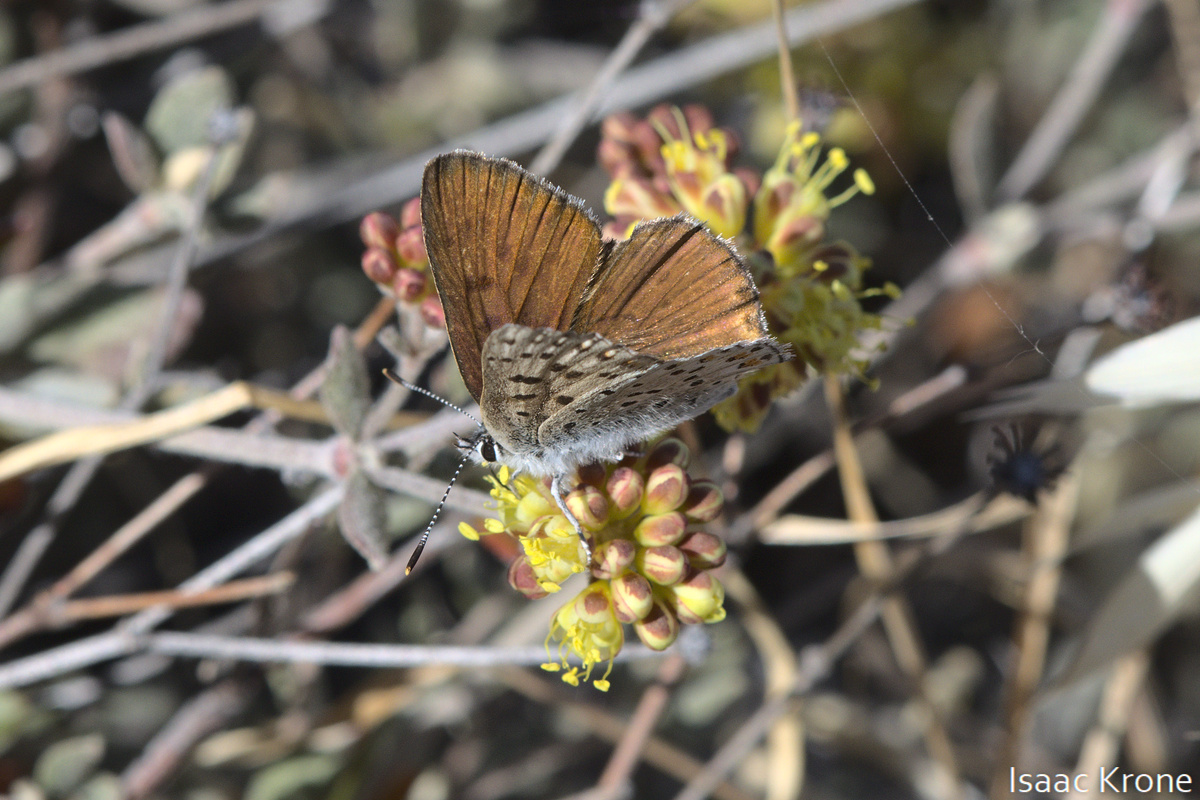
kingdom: Animalia
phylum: Arthropoda
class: Insecta
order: Lepidoptera
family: Lycaenidae
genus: Tharsalea
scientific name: Tharsalea gorgon
